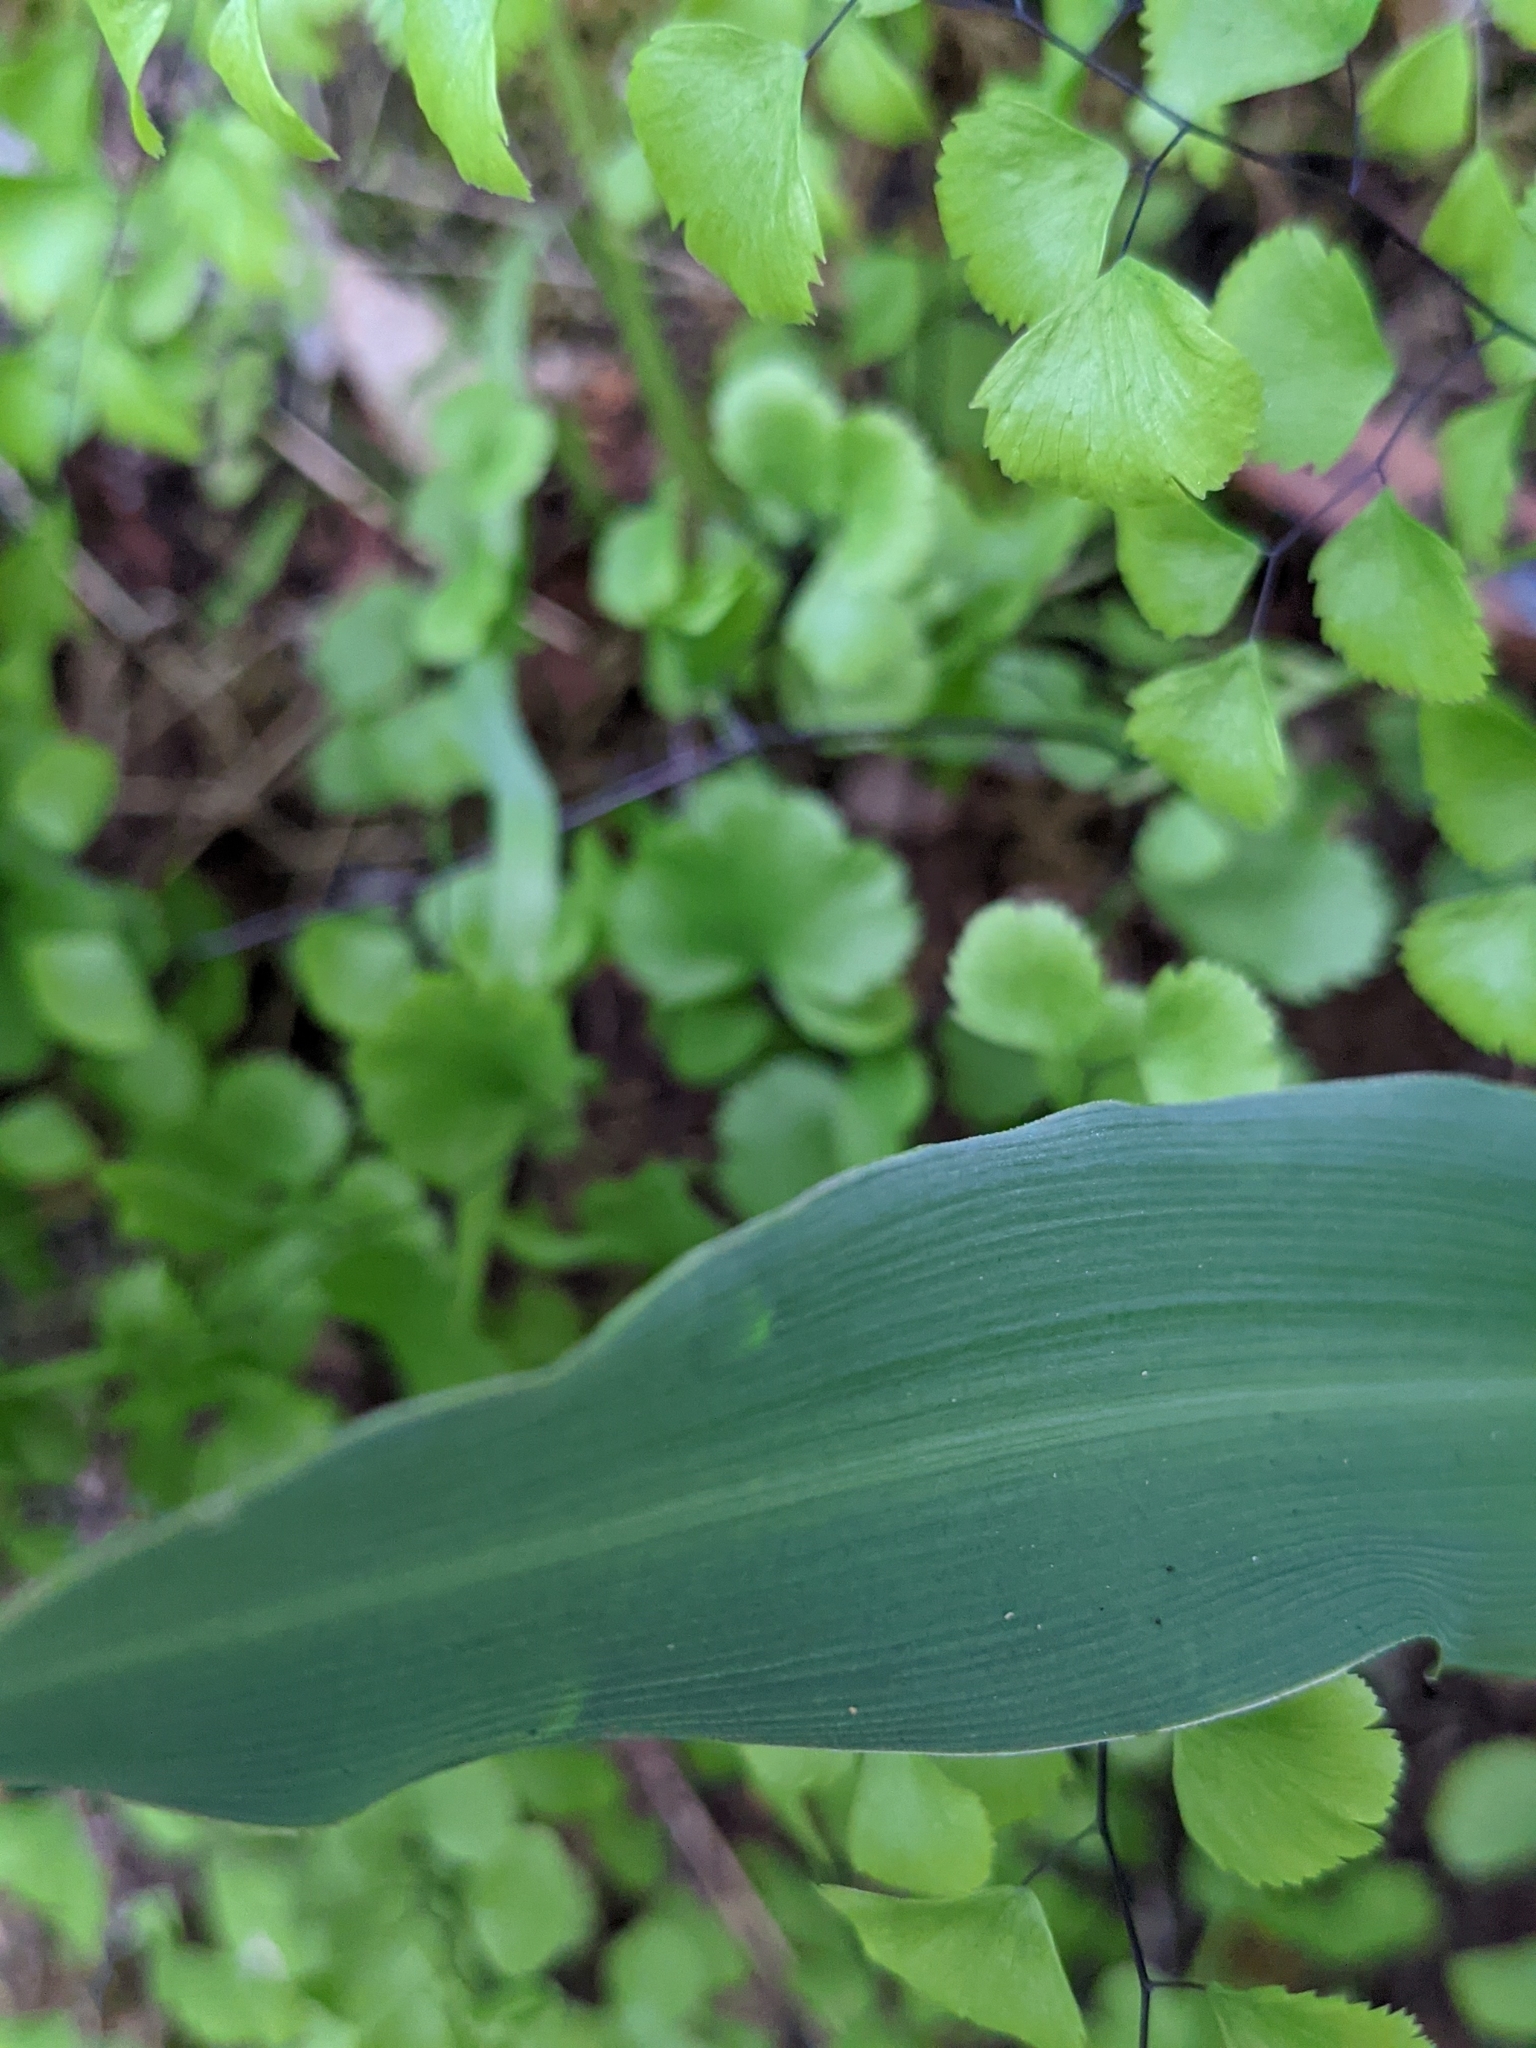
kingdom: Plantae
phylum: Tracheophyta
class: Liliopsida
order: Asparagales
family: Asparagaceae
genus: Chlorogalum
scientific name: Chlorogalum pomeridianum
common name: Amole
